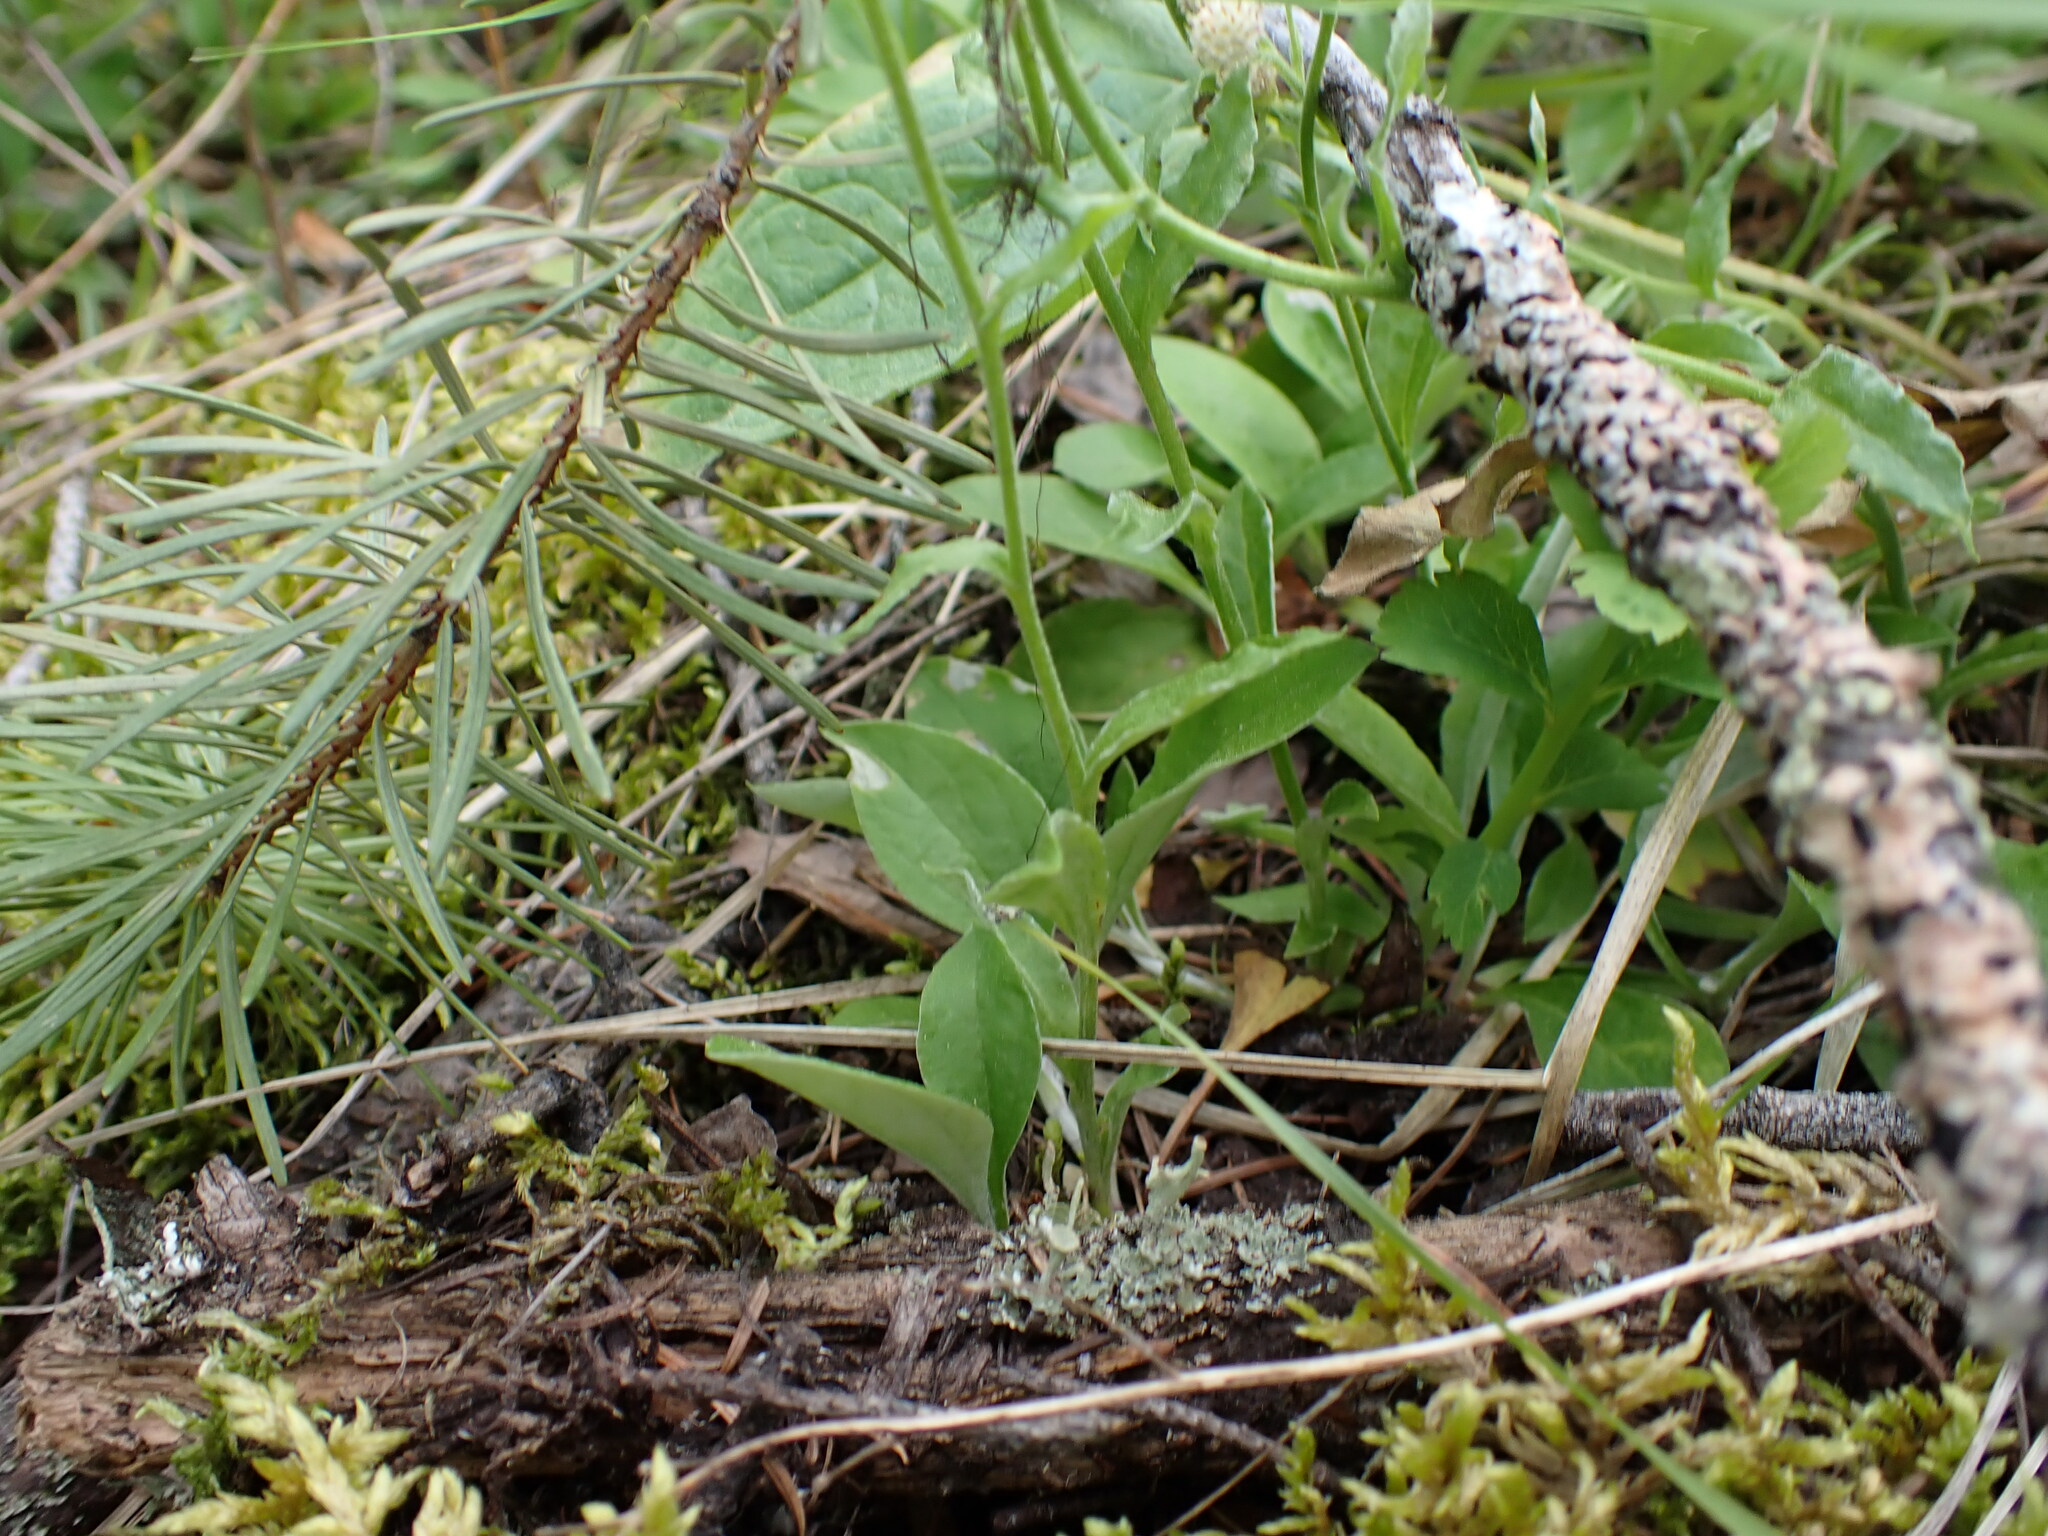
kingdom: Plantae
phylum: Tracheophyta
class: Magnoliopsida
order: Asterales
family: Asteraceae
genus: Antennaria
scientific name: Antennaria racemosa
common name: Racemose pussytoes
